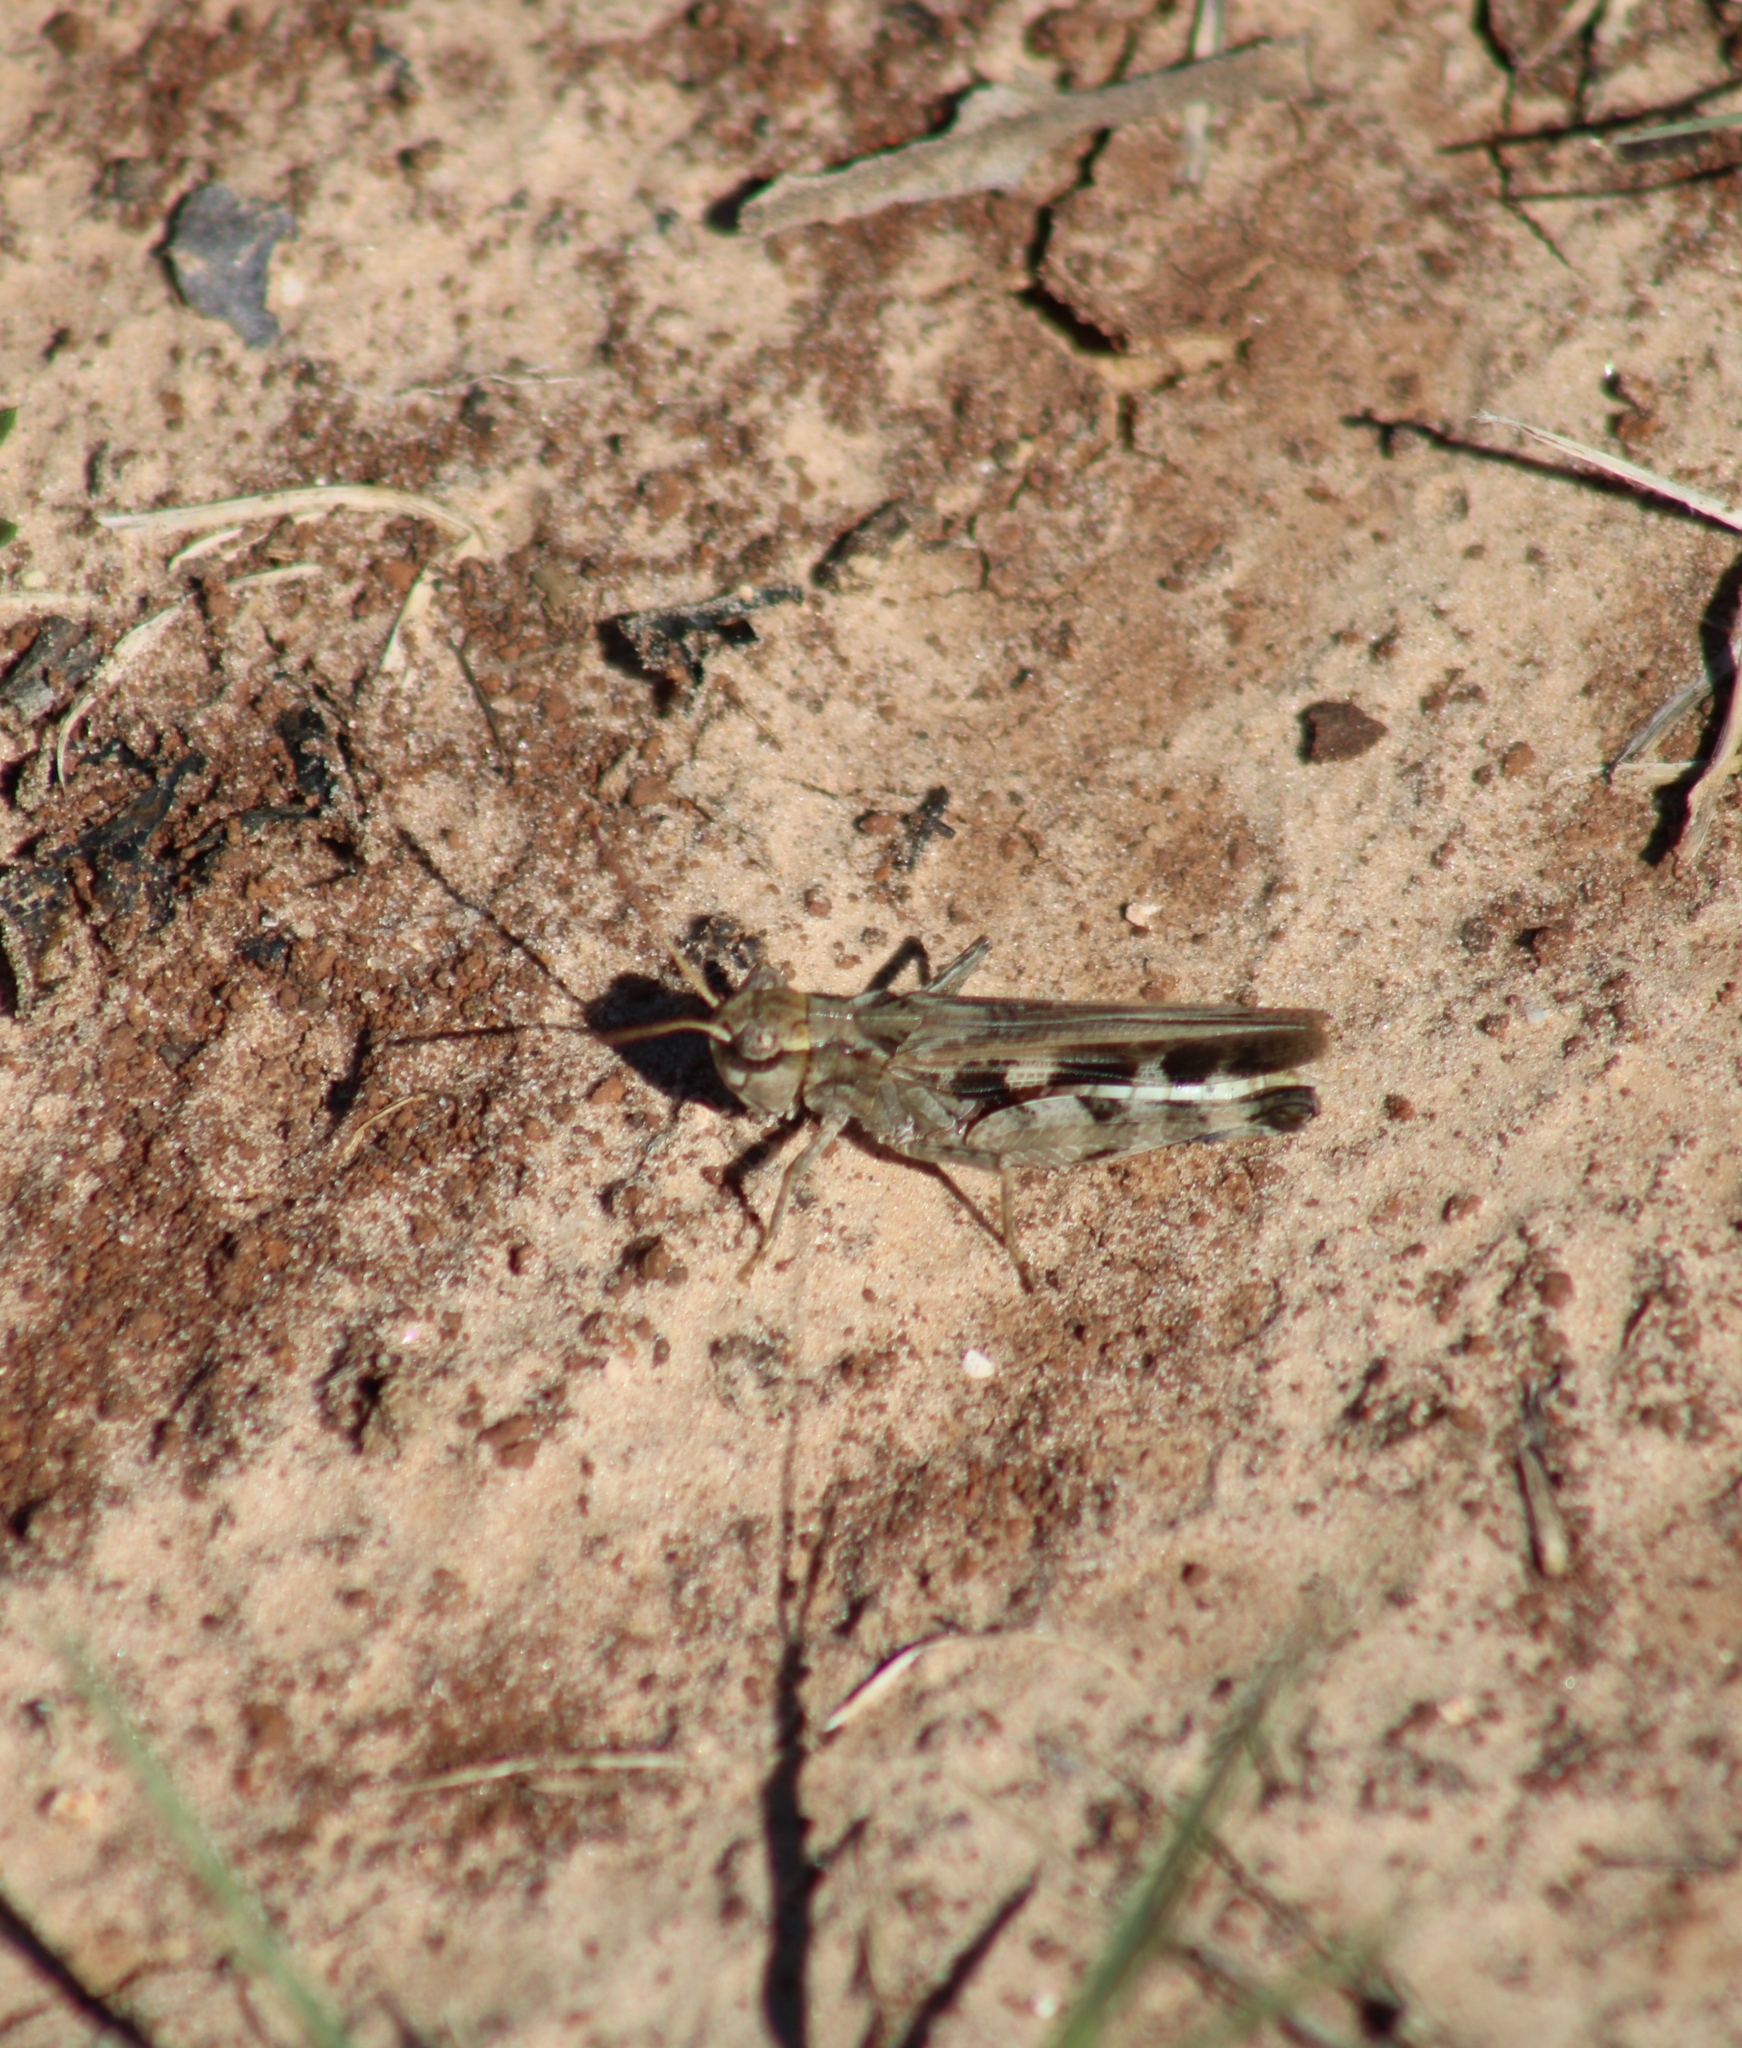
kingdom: Animalia
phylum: Arthropoda
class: Insecta
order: Orthoptera
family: Acrididae
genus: Encoptolophus
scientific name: Encoptolophus costalis
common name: Dusky grasshopper
